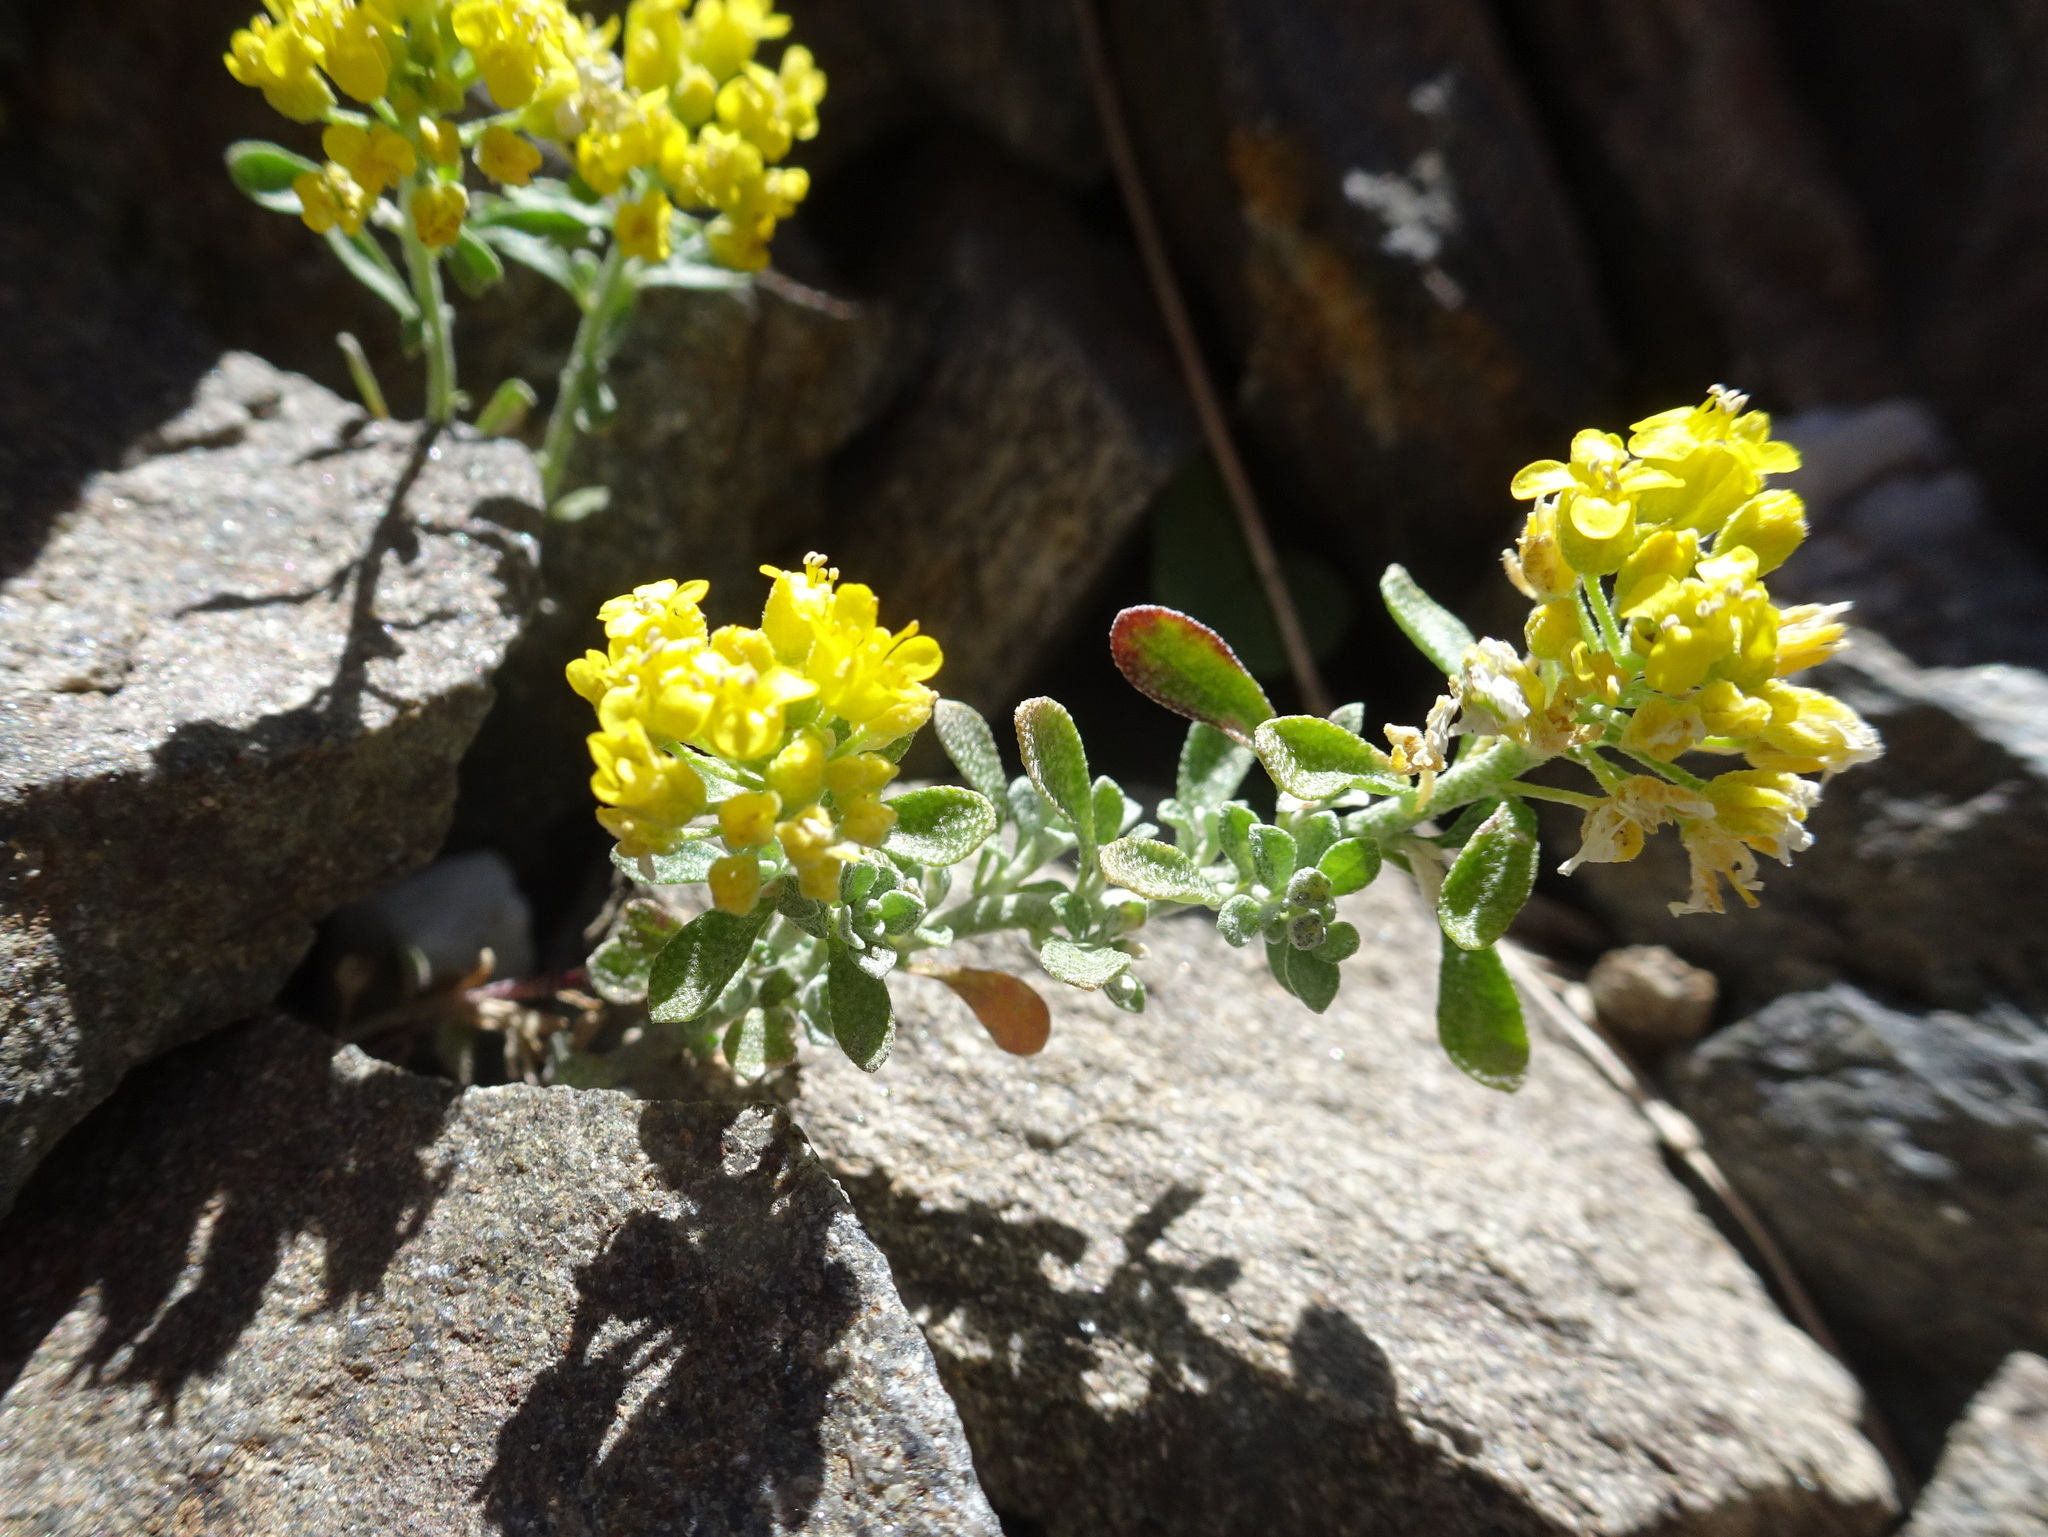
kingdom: Plantae
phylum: Tracheophyta
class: Magnoliopsida
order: Brassicales
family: Brassicaceae
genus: Odontarrhena
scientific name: Odontarrhena alpestris
